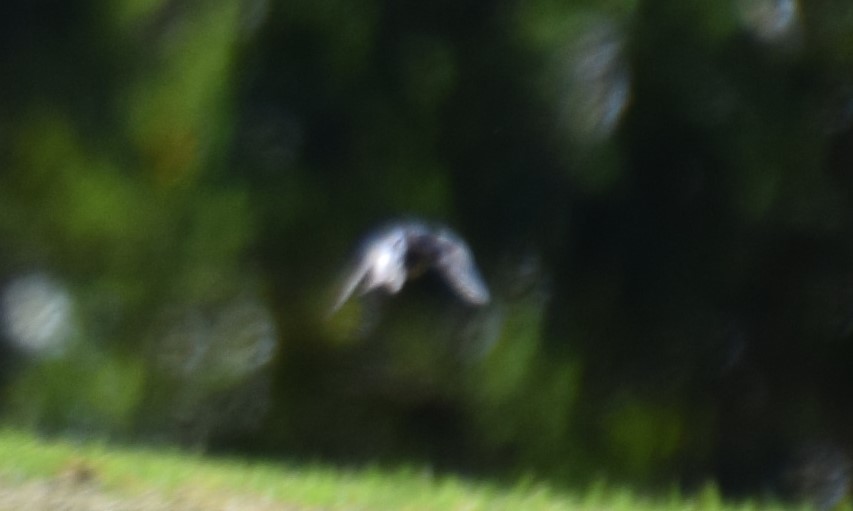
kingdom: Animalia
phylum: Chordata
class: Aves
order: Passeriformes
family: Hirundinidae
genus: Hirundo
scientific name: Hirundo neoxena
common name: Welcome swallow
